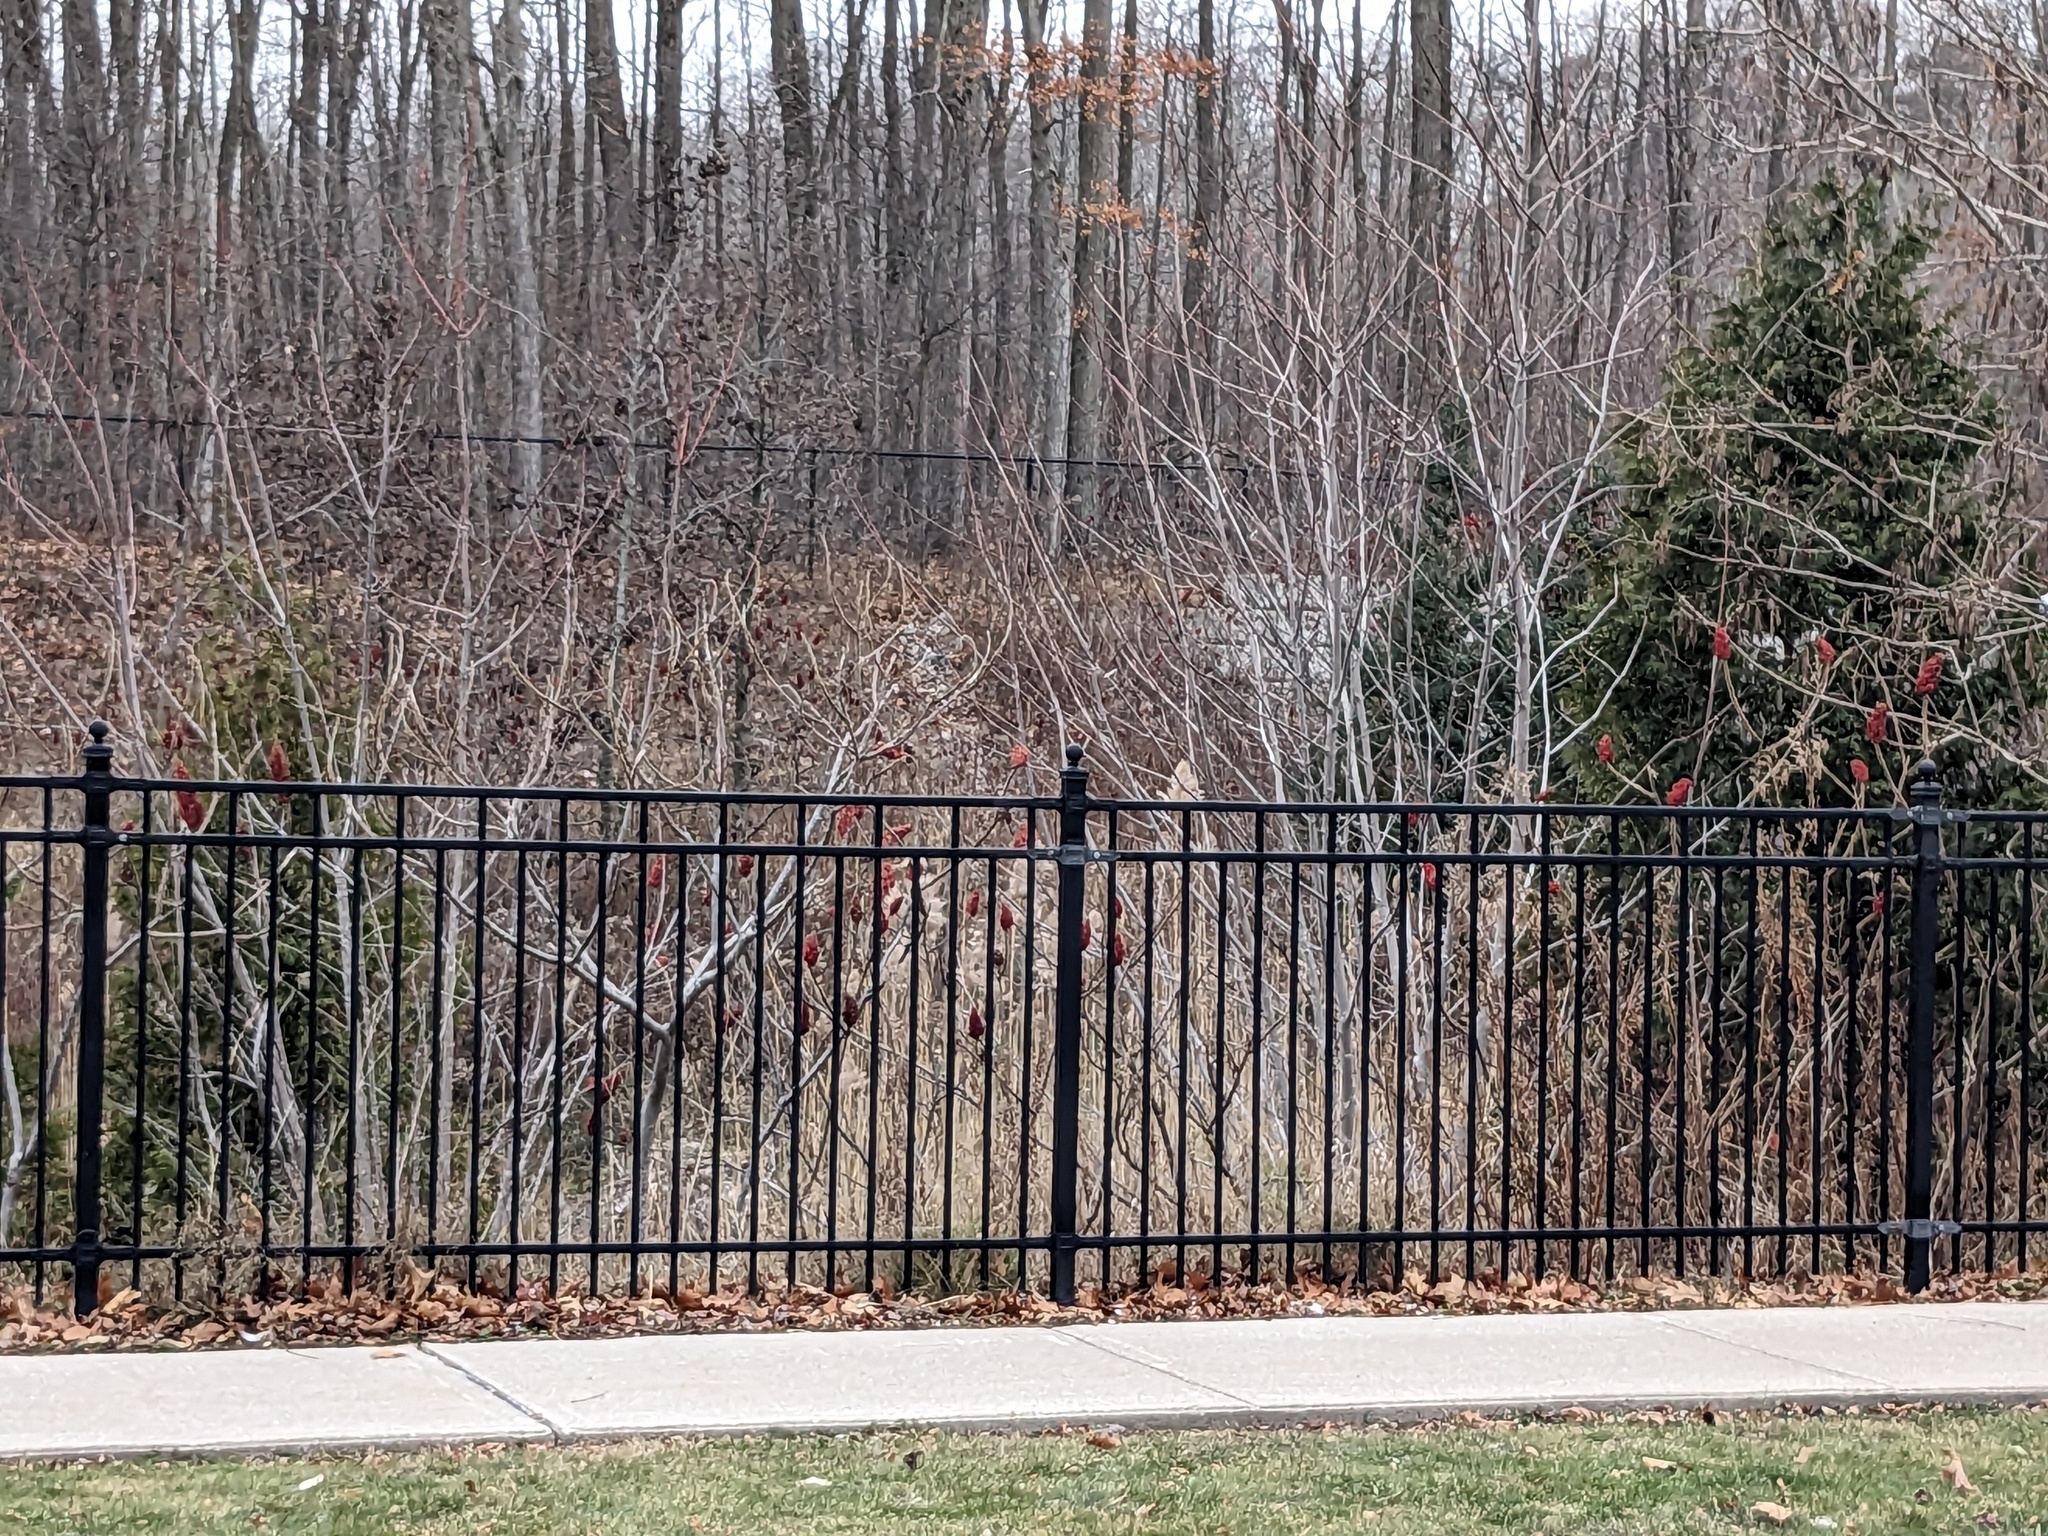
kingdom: Plantae
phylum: Tracheophyta
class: Liliopsida
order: Poales
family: Poaceae
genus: Phragmites
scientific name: Phragmites australis
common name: Common reed
